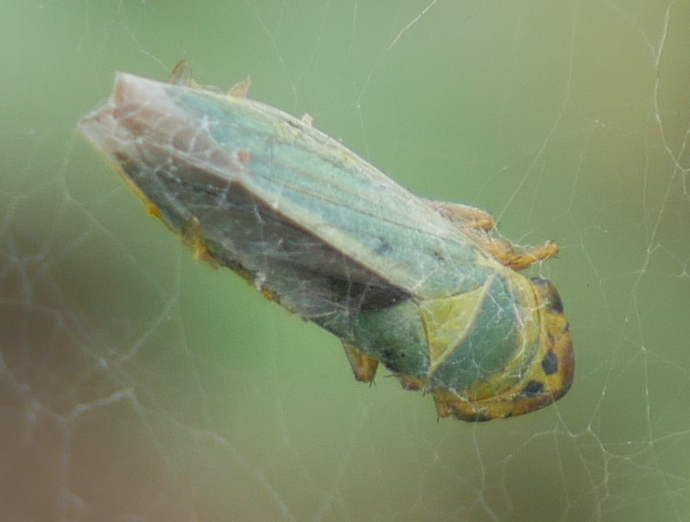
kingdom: Animalia
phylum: Arthropoda
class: Insecta
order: Hemiptera
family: Cicadellidae
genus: Cicadella
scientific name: Cicadella viridis
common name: Leafhopper
